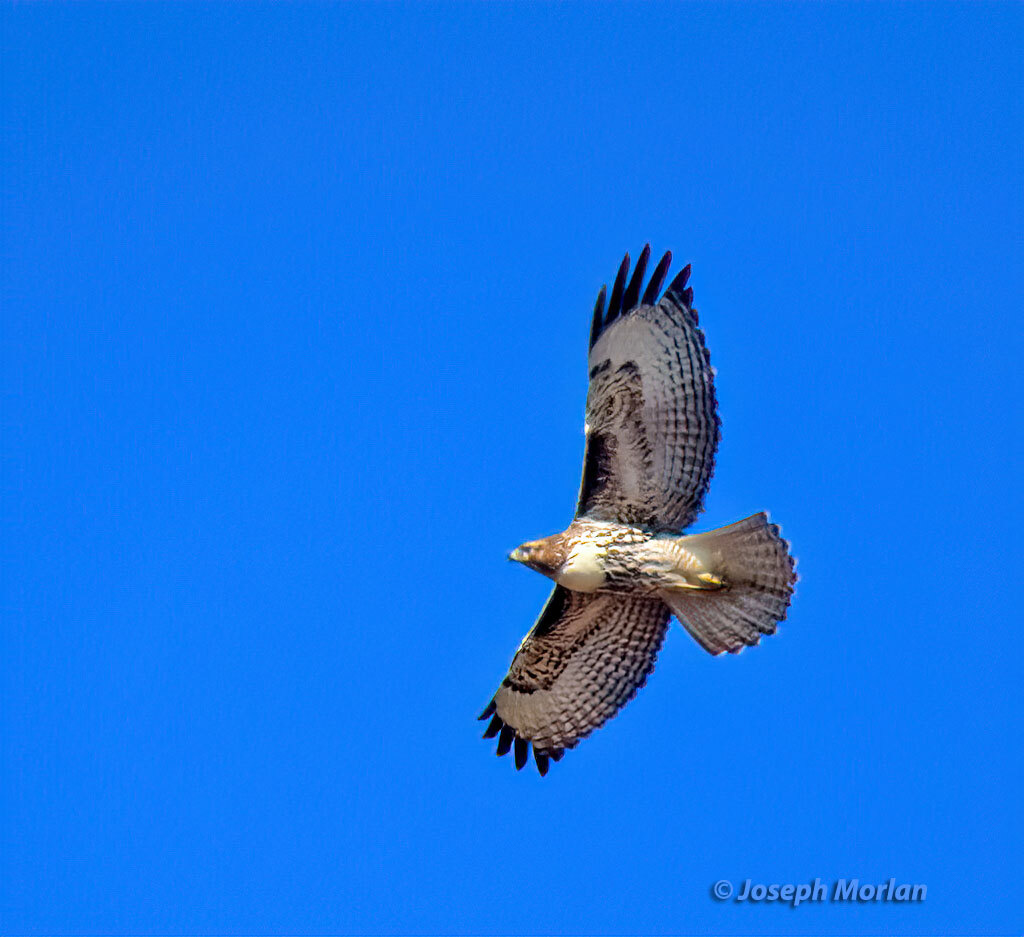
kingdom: Animalia
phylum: Chordata
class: Aves
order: Accipitriformes
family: Accipitridae
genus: Buteo
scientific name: Buteo jamaicensis
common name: Red-tailed hawk
